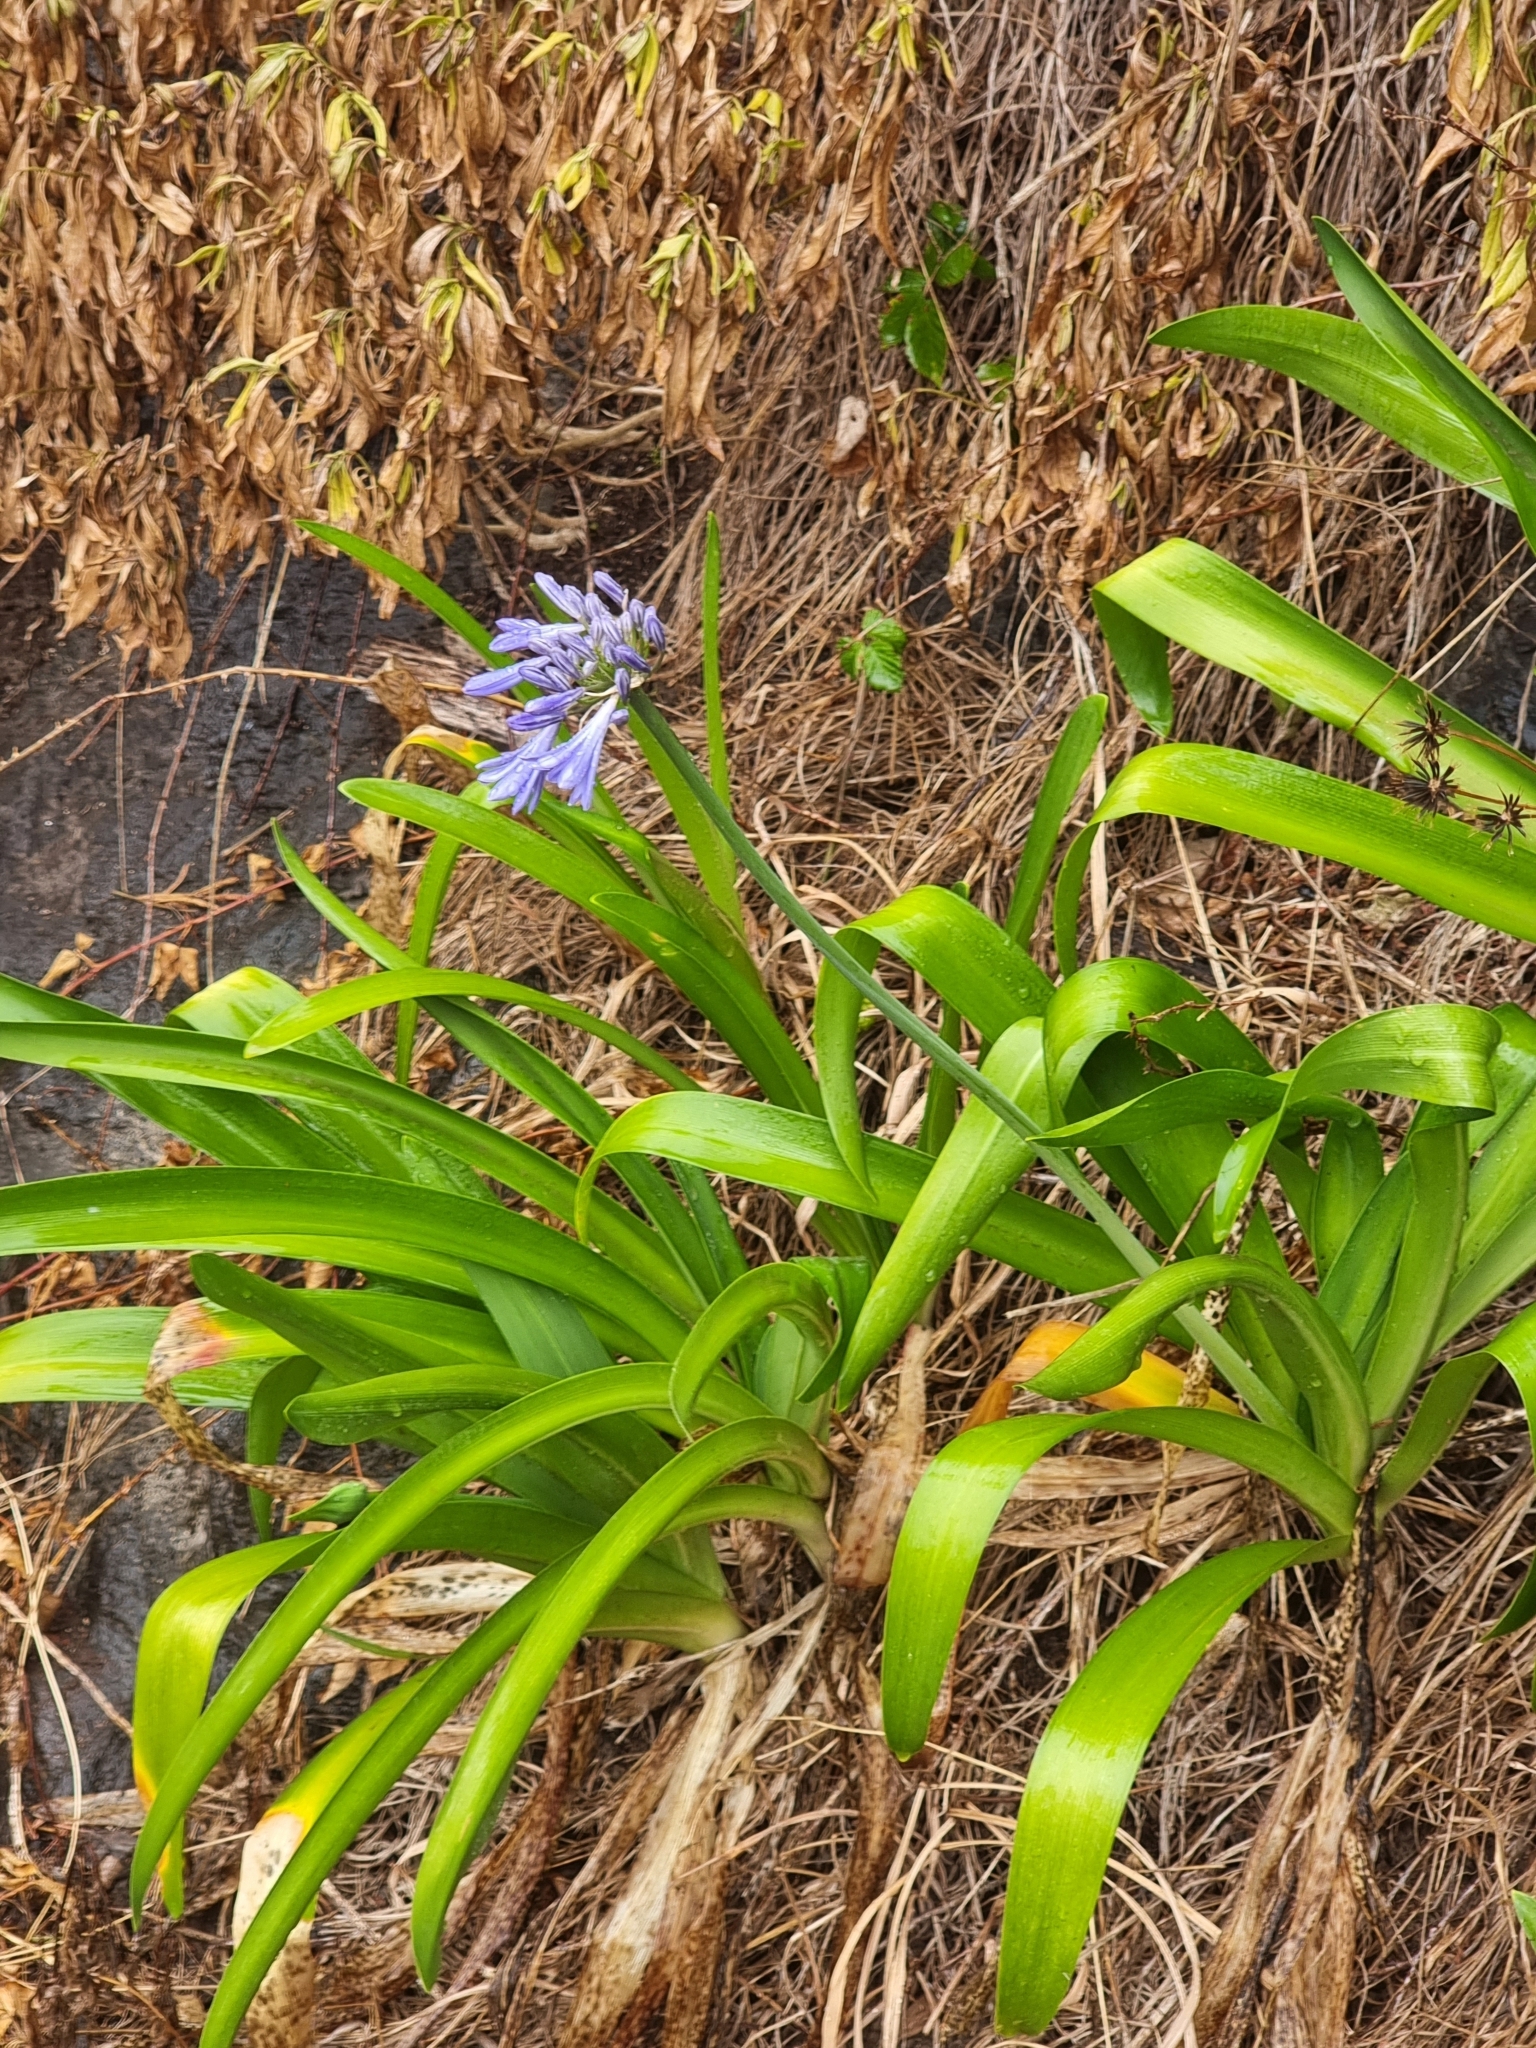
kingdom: Plantae
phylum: Tracheophyta
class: Liliopsida
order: Asparagales
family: Amaryllidaceae
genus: Agapanthus
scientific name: Agapanthus praecox
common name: African-lily
